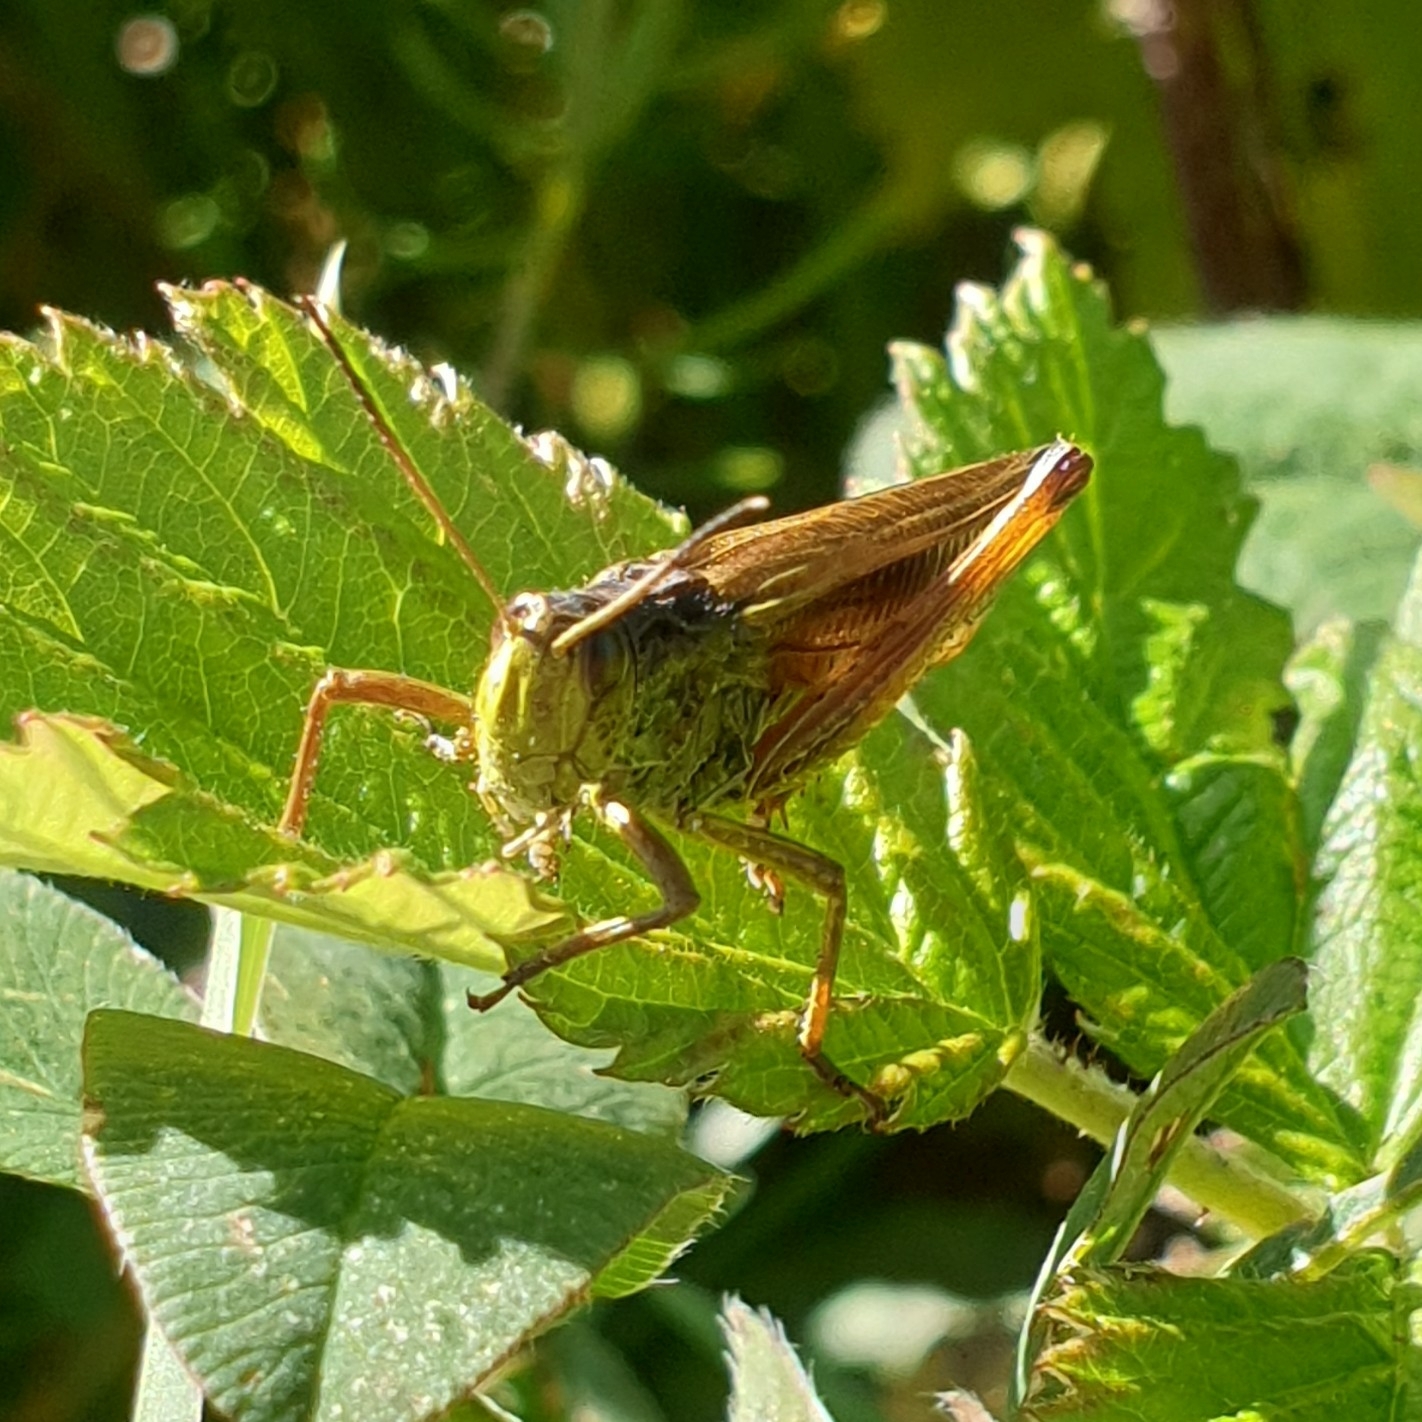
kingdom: Animalia
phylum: Arthropoda
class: Insecta
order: Orthoptera
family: Acrididae
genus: Stauroderus
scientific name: Stauroderus scalaris
